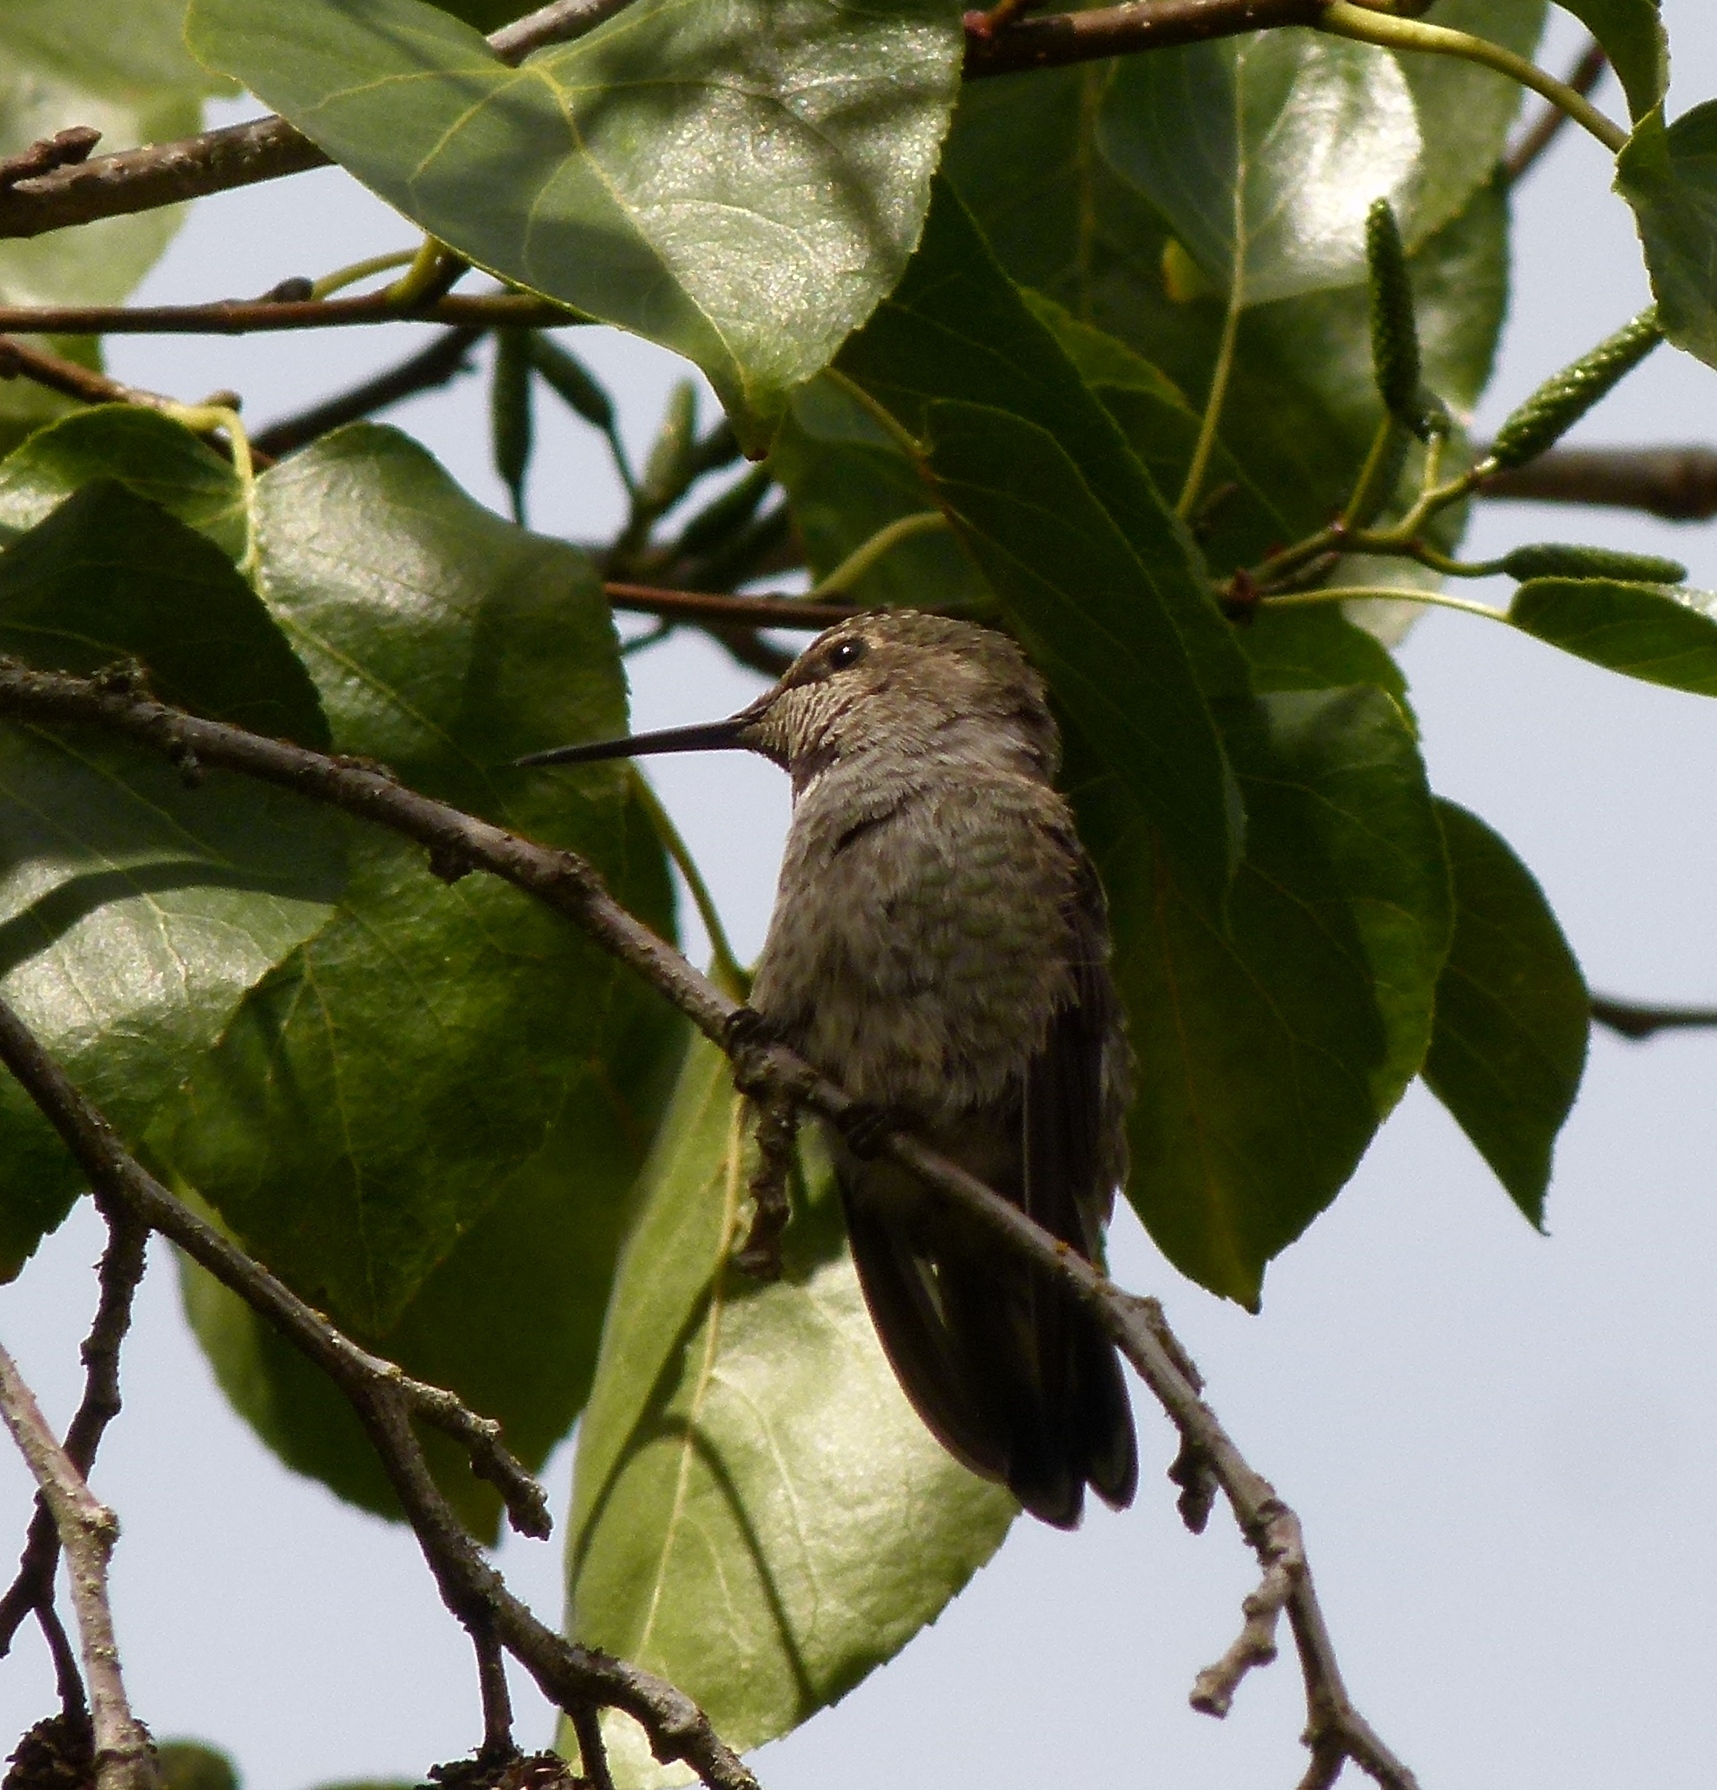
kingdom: Animalia
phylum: Chordata
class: Aves
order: Apodiformes
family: Trochilidae
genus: Calypte
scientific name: Calypte anna
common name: Anna's hummingbird
